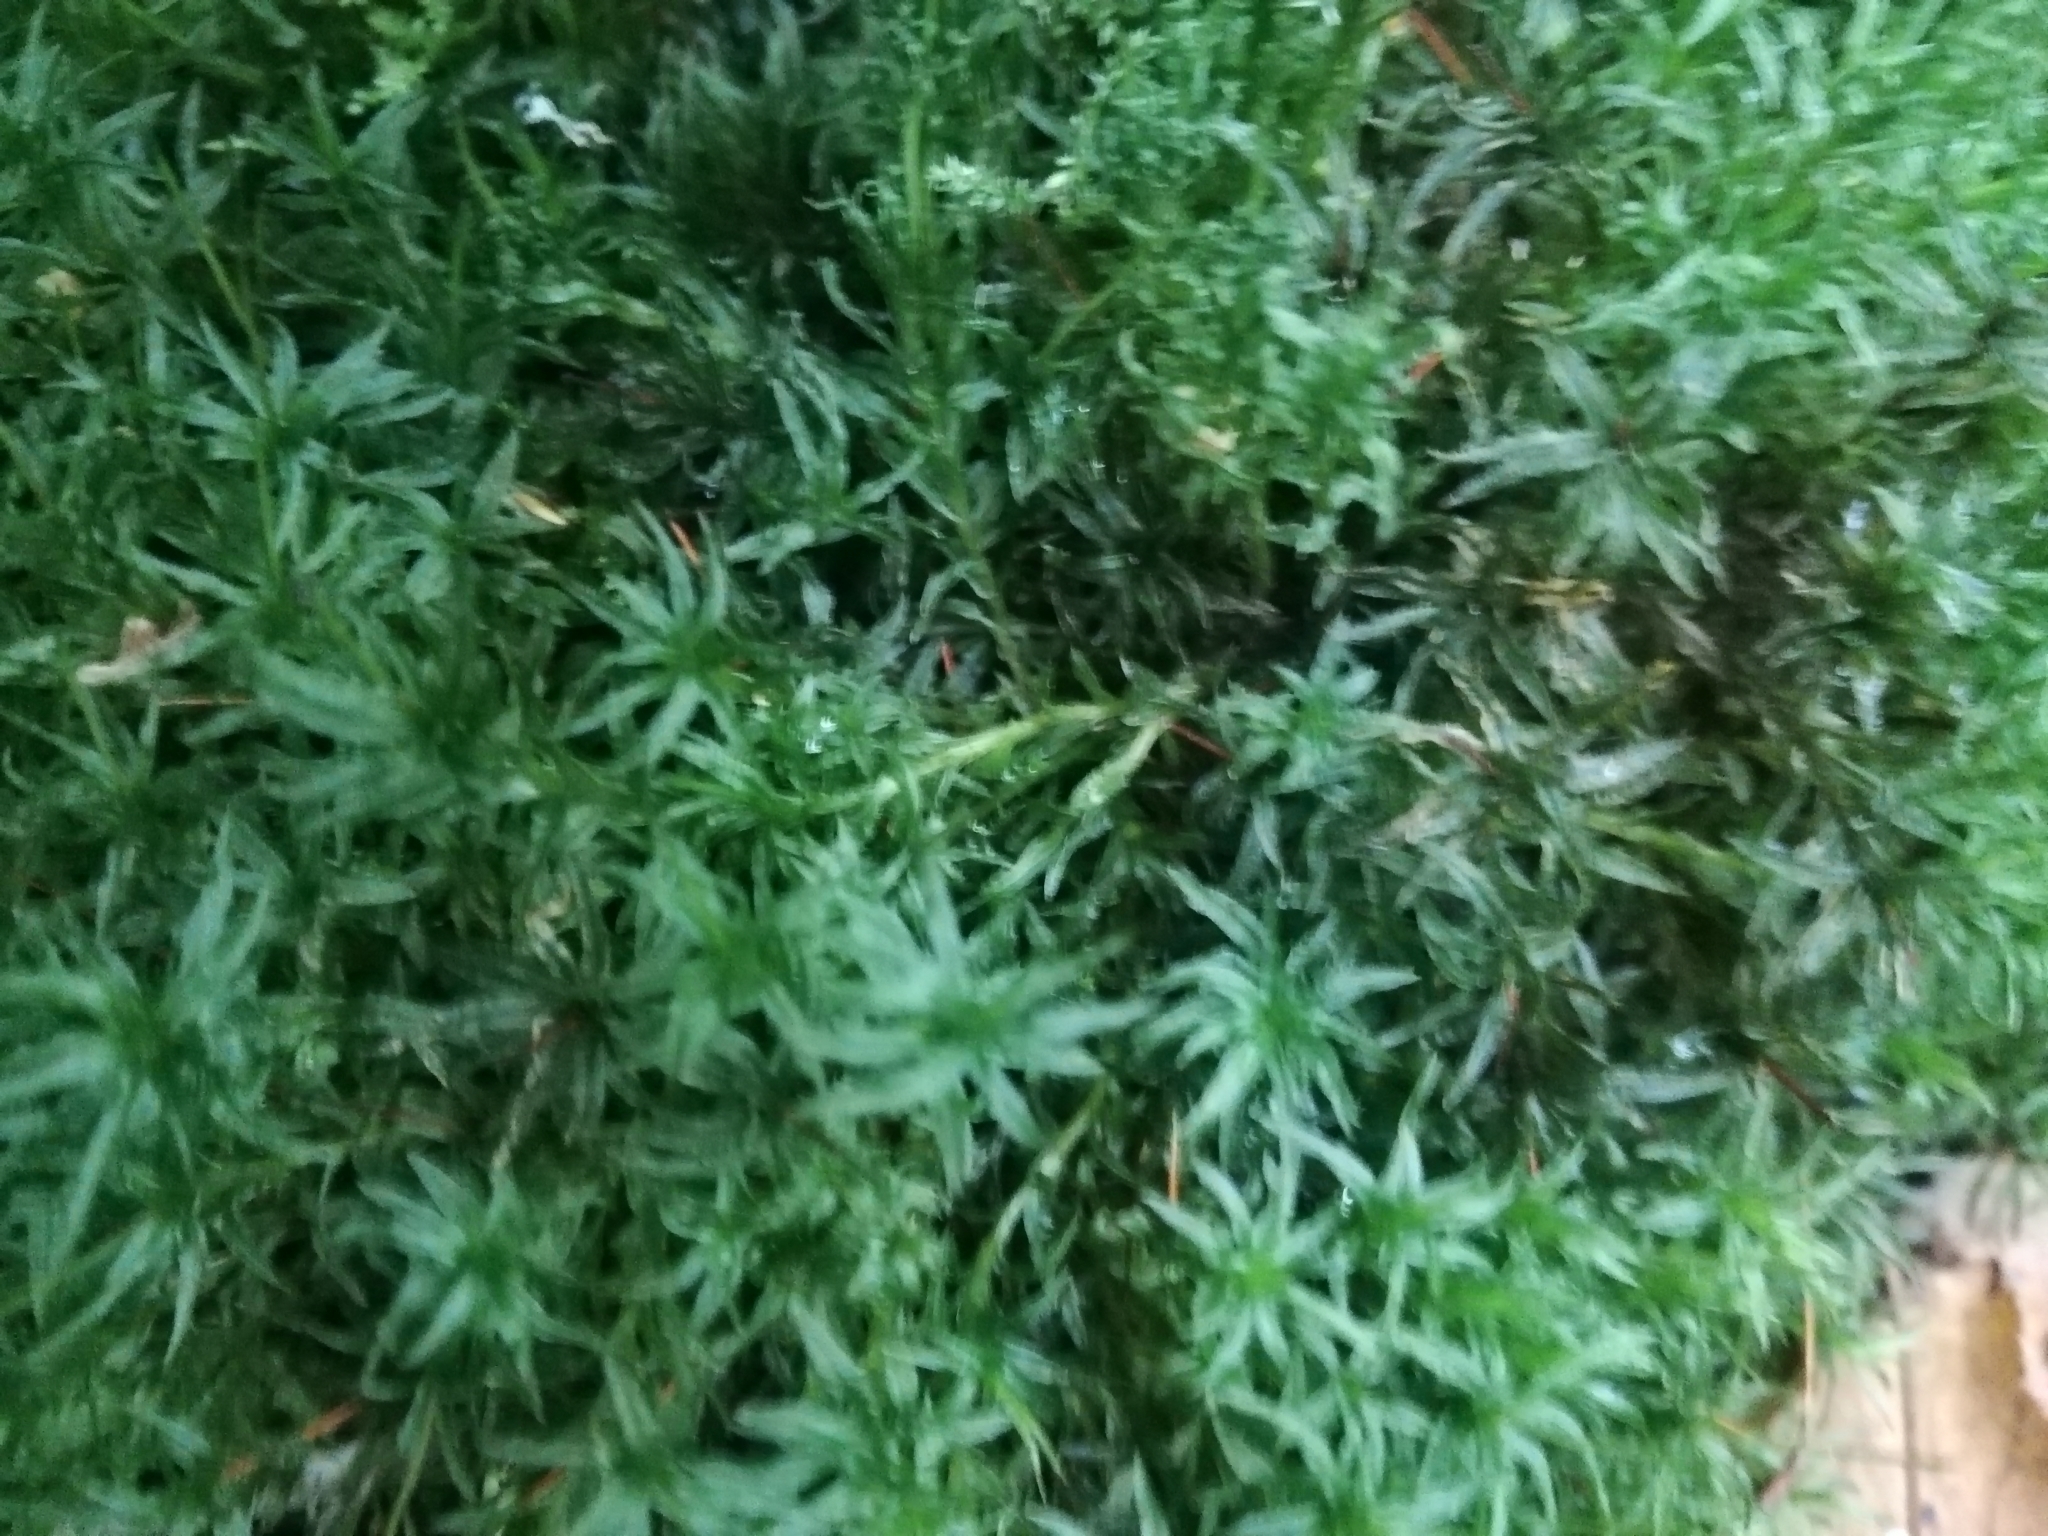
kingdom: Plantae
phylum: Bryophyta
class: Polytrichopsida
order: Polytrichales
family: Polytrichaceae
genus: Atrichum
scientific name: Atrichum undulatum
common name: Common smoothcap
